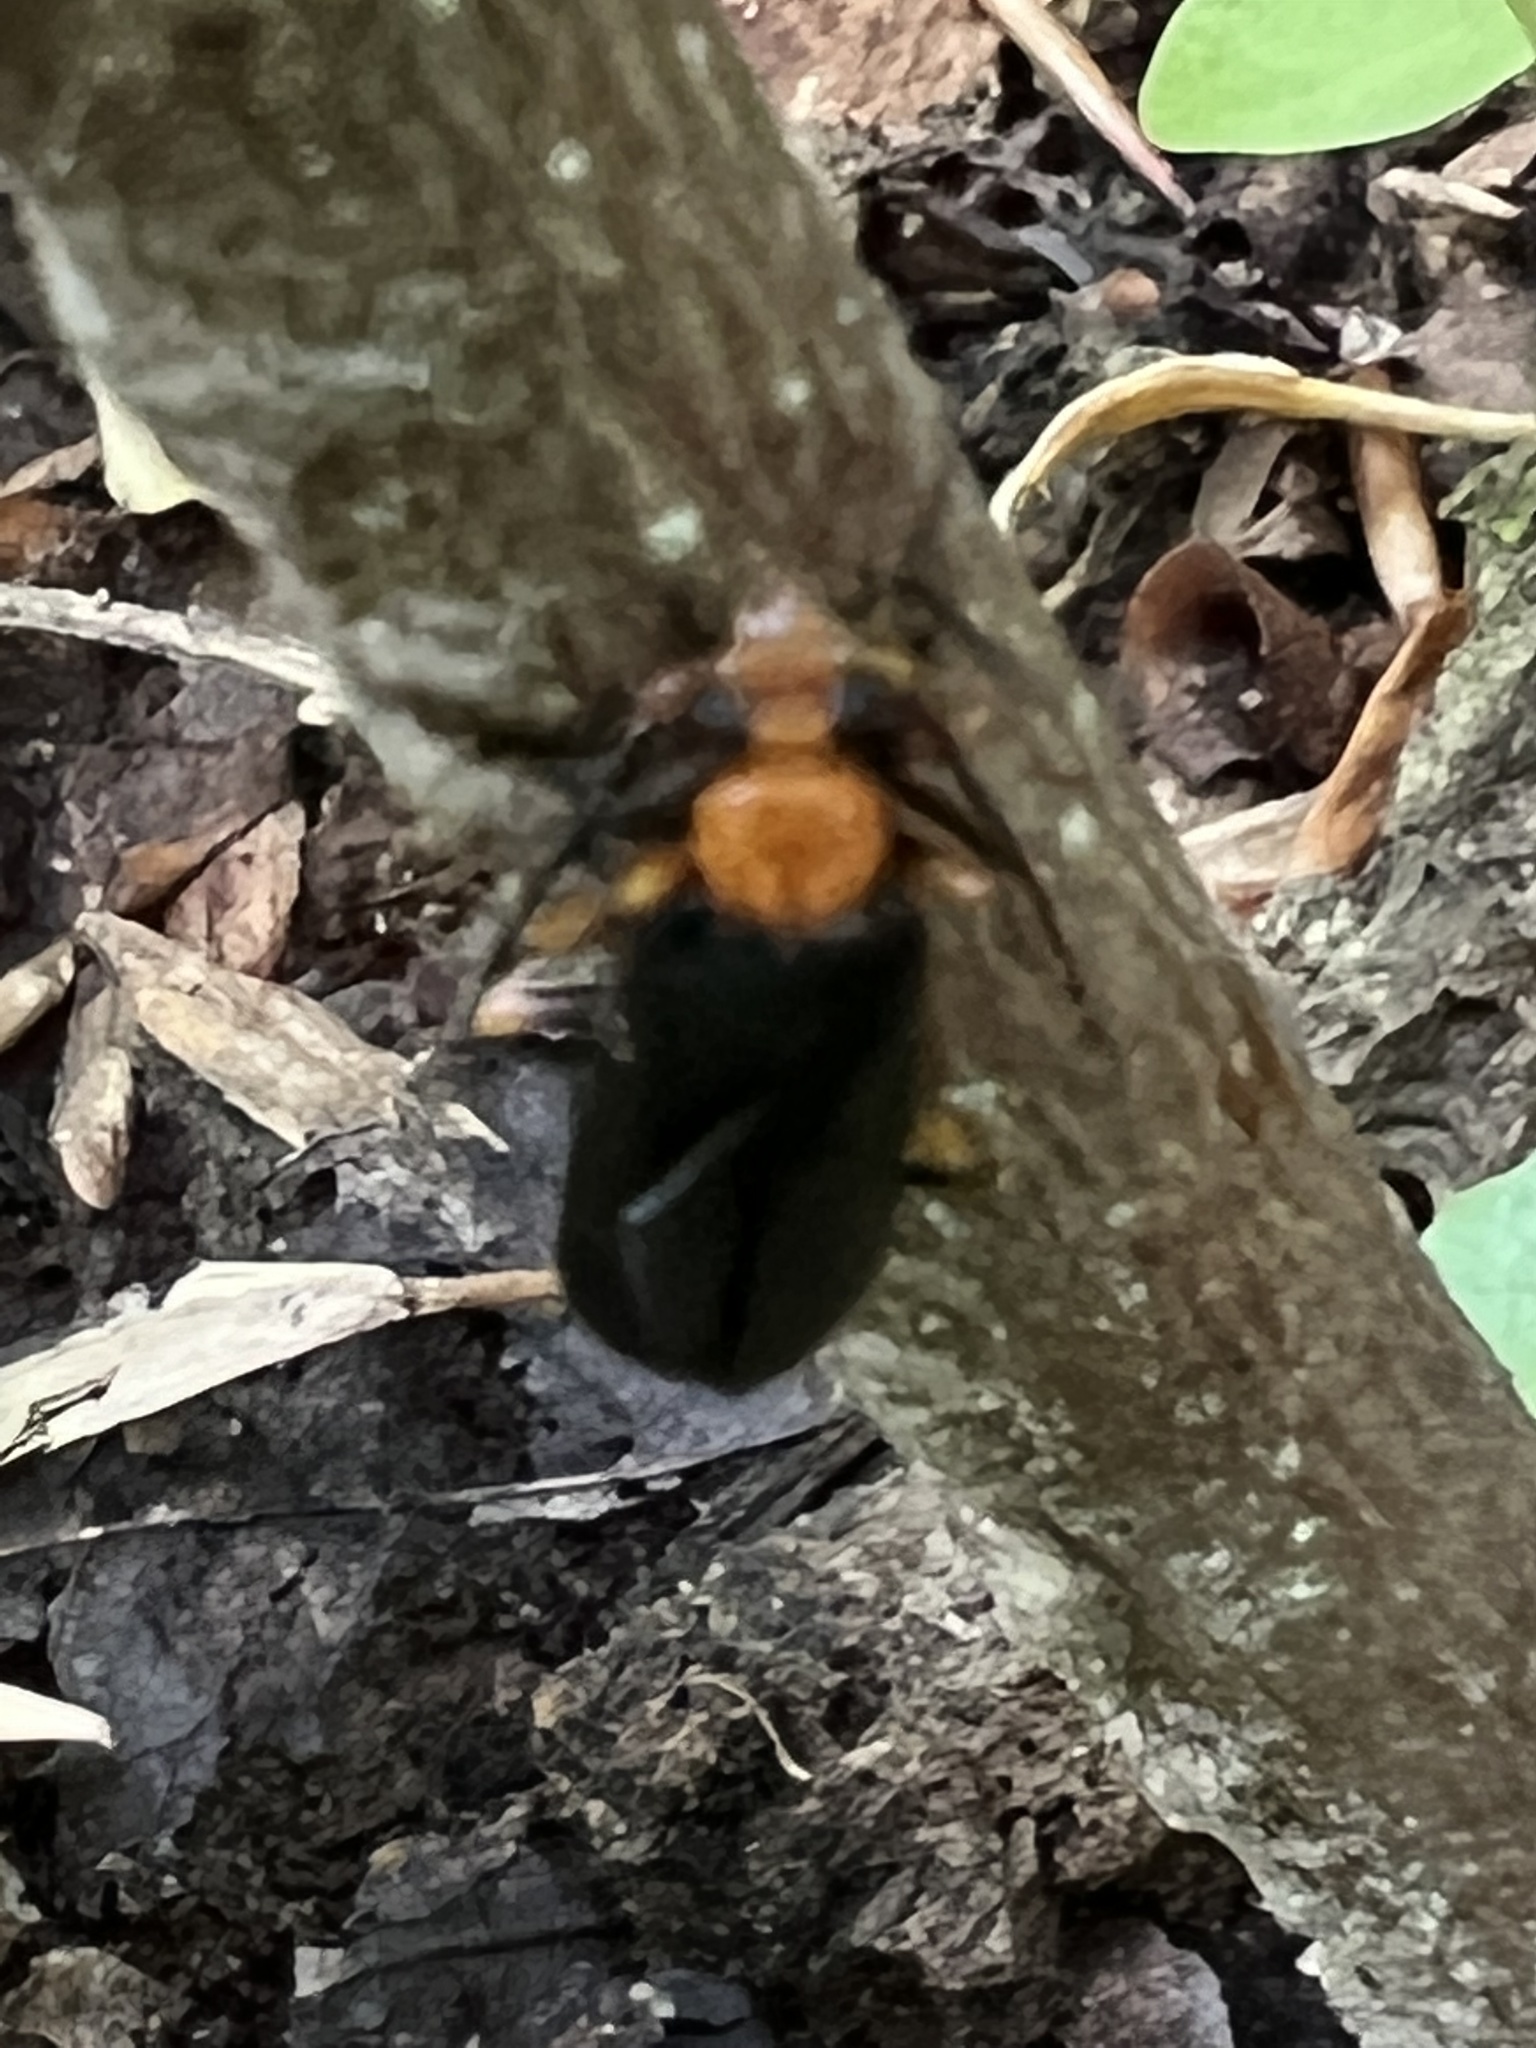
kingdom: Animalia
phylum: Arthropoda
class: Insecta
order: Coleoptera
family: Pyrochroidae
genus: Neopyrochroa
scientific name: Neopyrochroa femoralis
